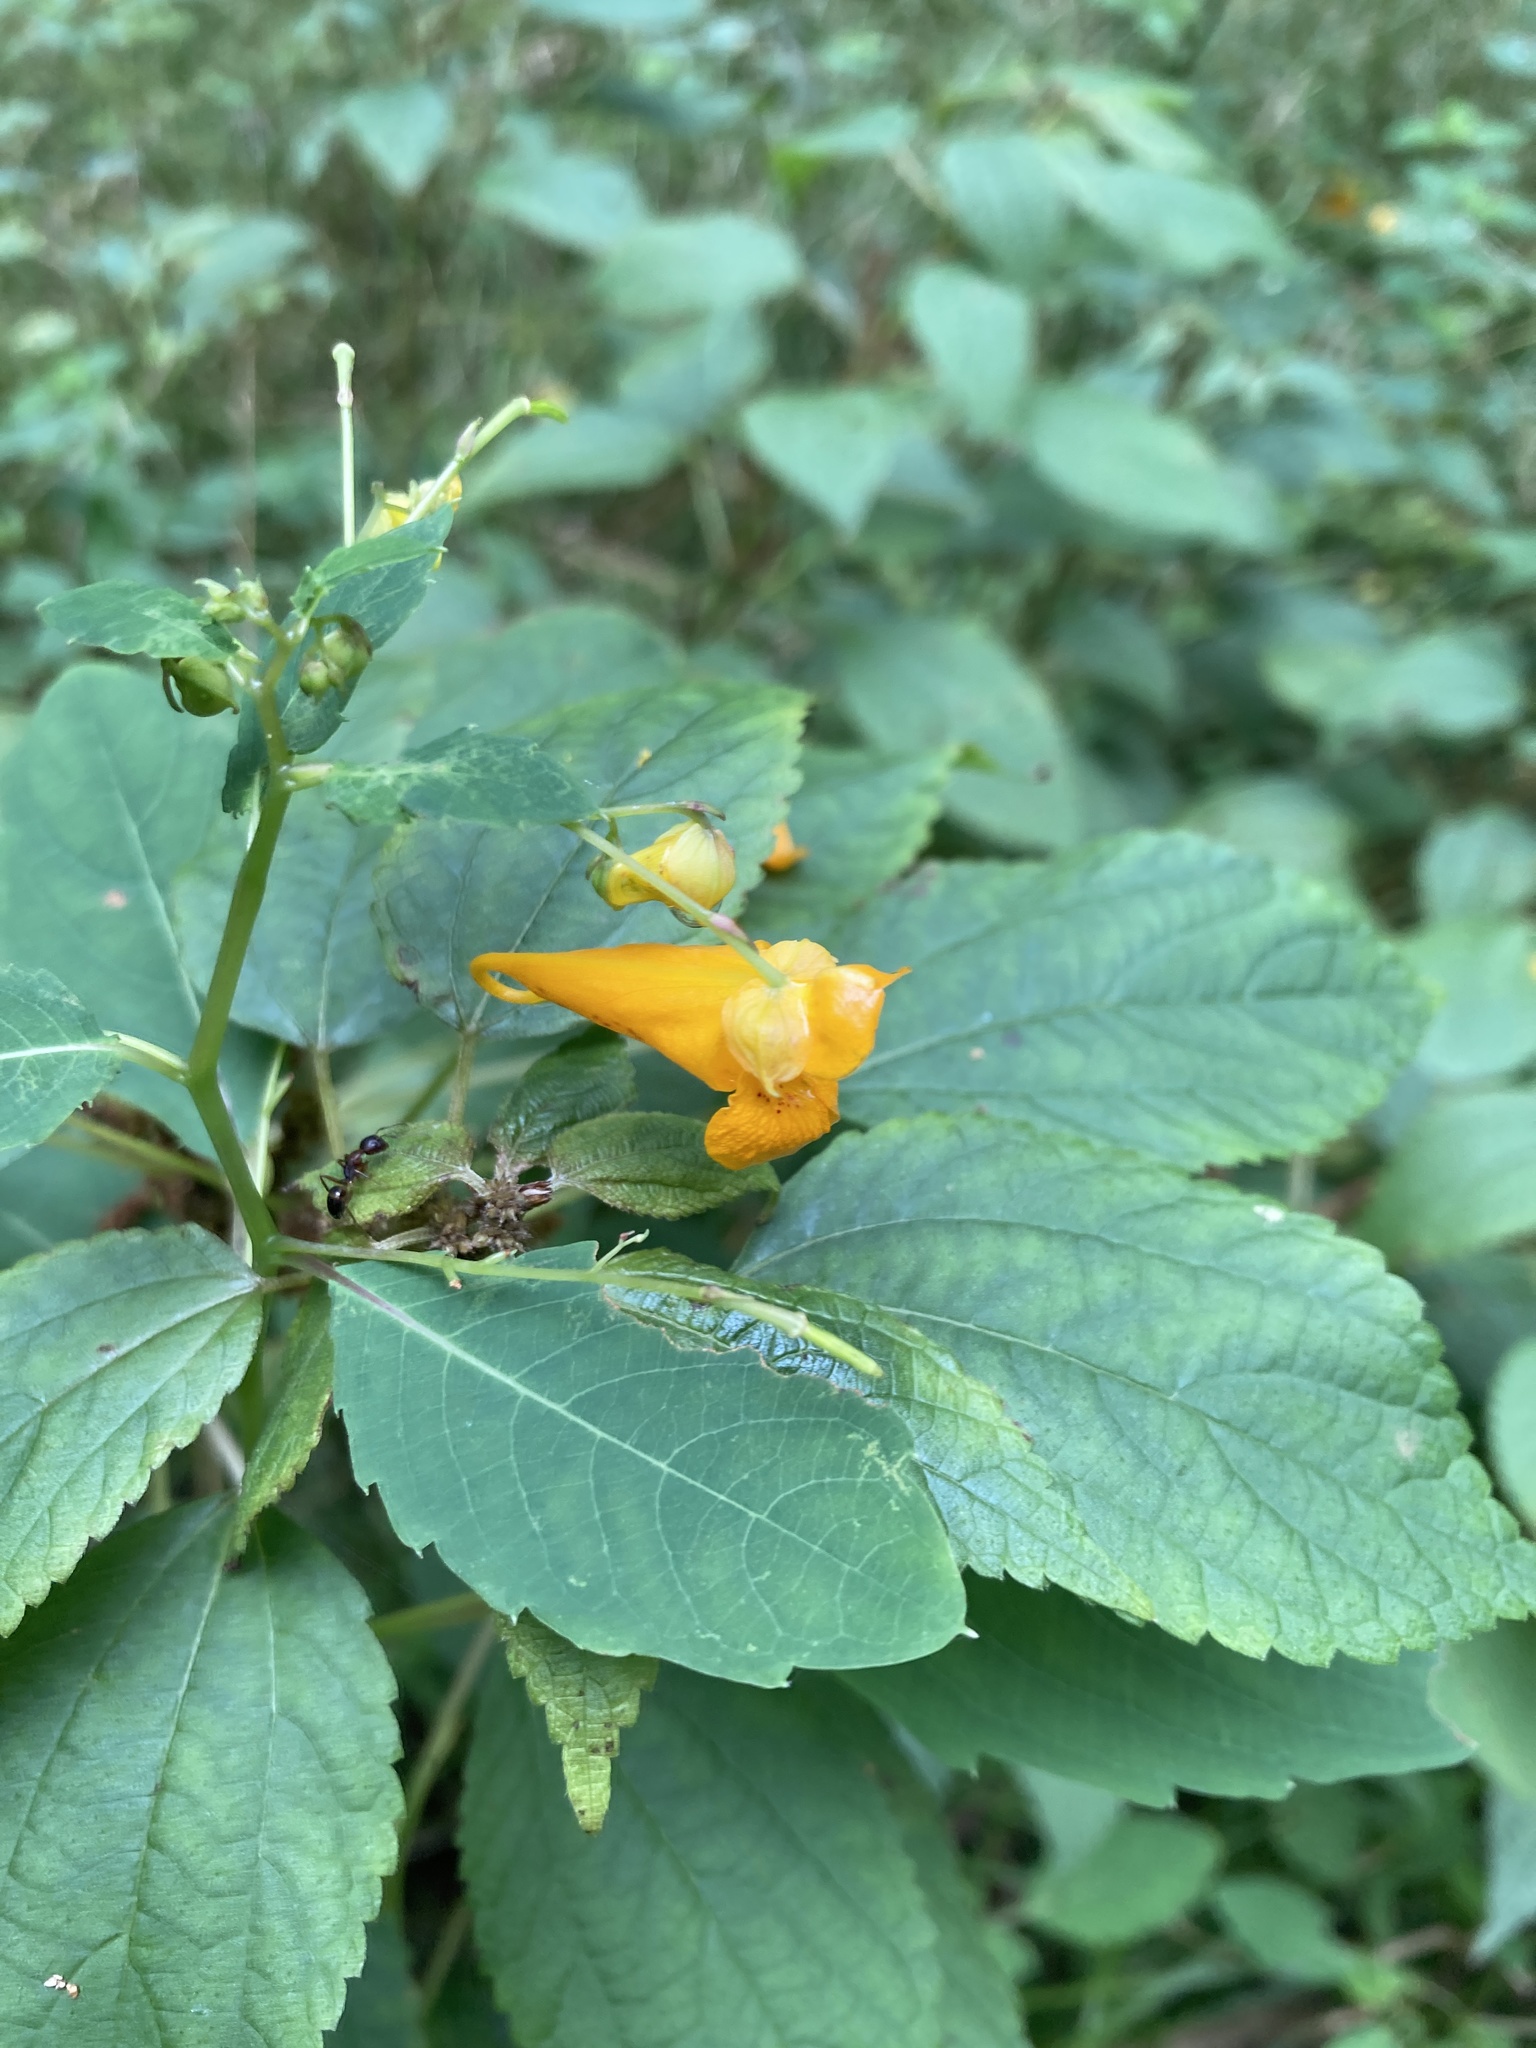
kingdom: Plantae
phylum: Tracheophyta
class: Magnoliopsida
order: Ericales
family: Balsaminaceae
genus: Impatiens
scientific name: Impatiens capensis
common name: Orange balsam
